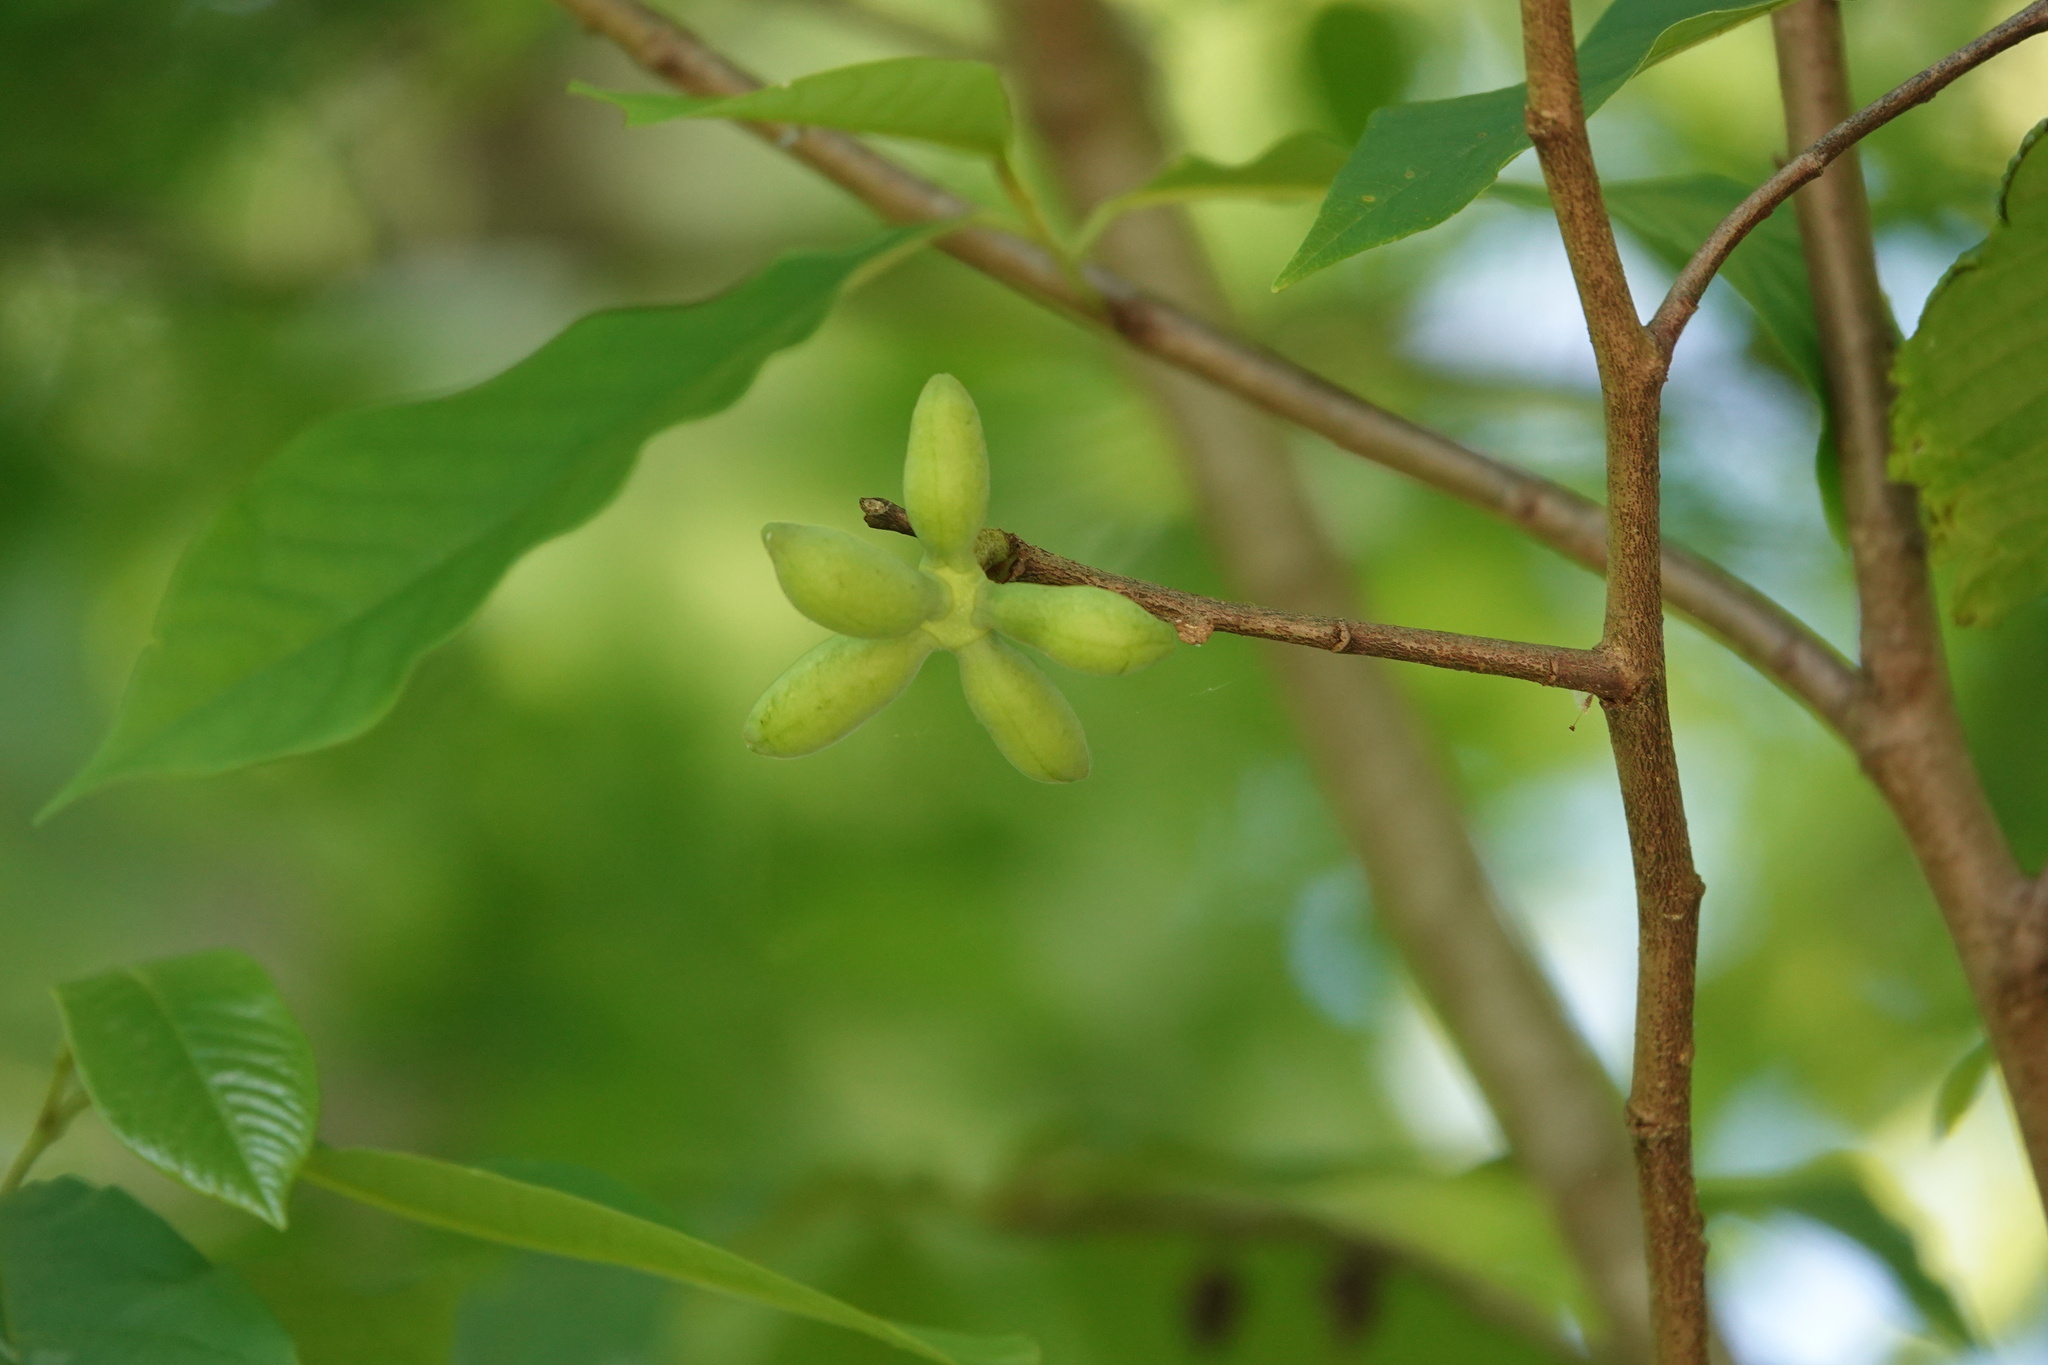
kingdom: Plantae
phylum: Tracheophyta
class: Magnoliopsida
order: Magnoliales
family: Annonaceae
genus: Asimina
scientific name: Asimina triloba
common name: Dog-banana
